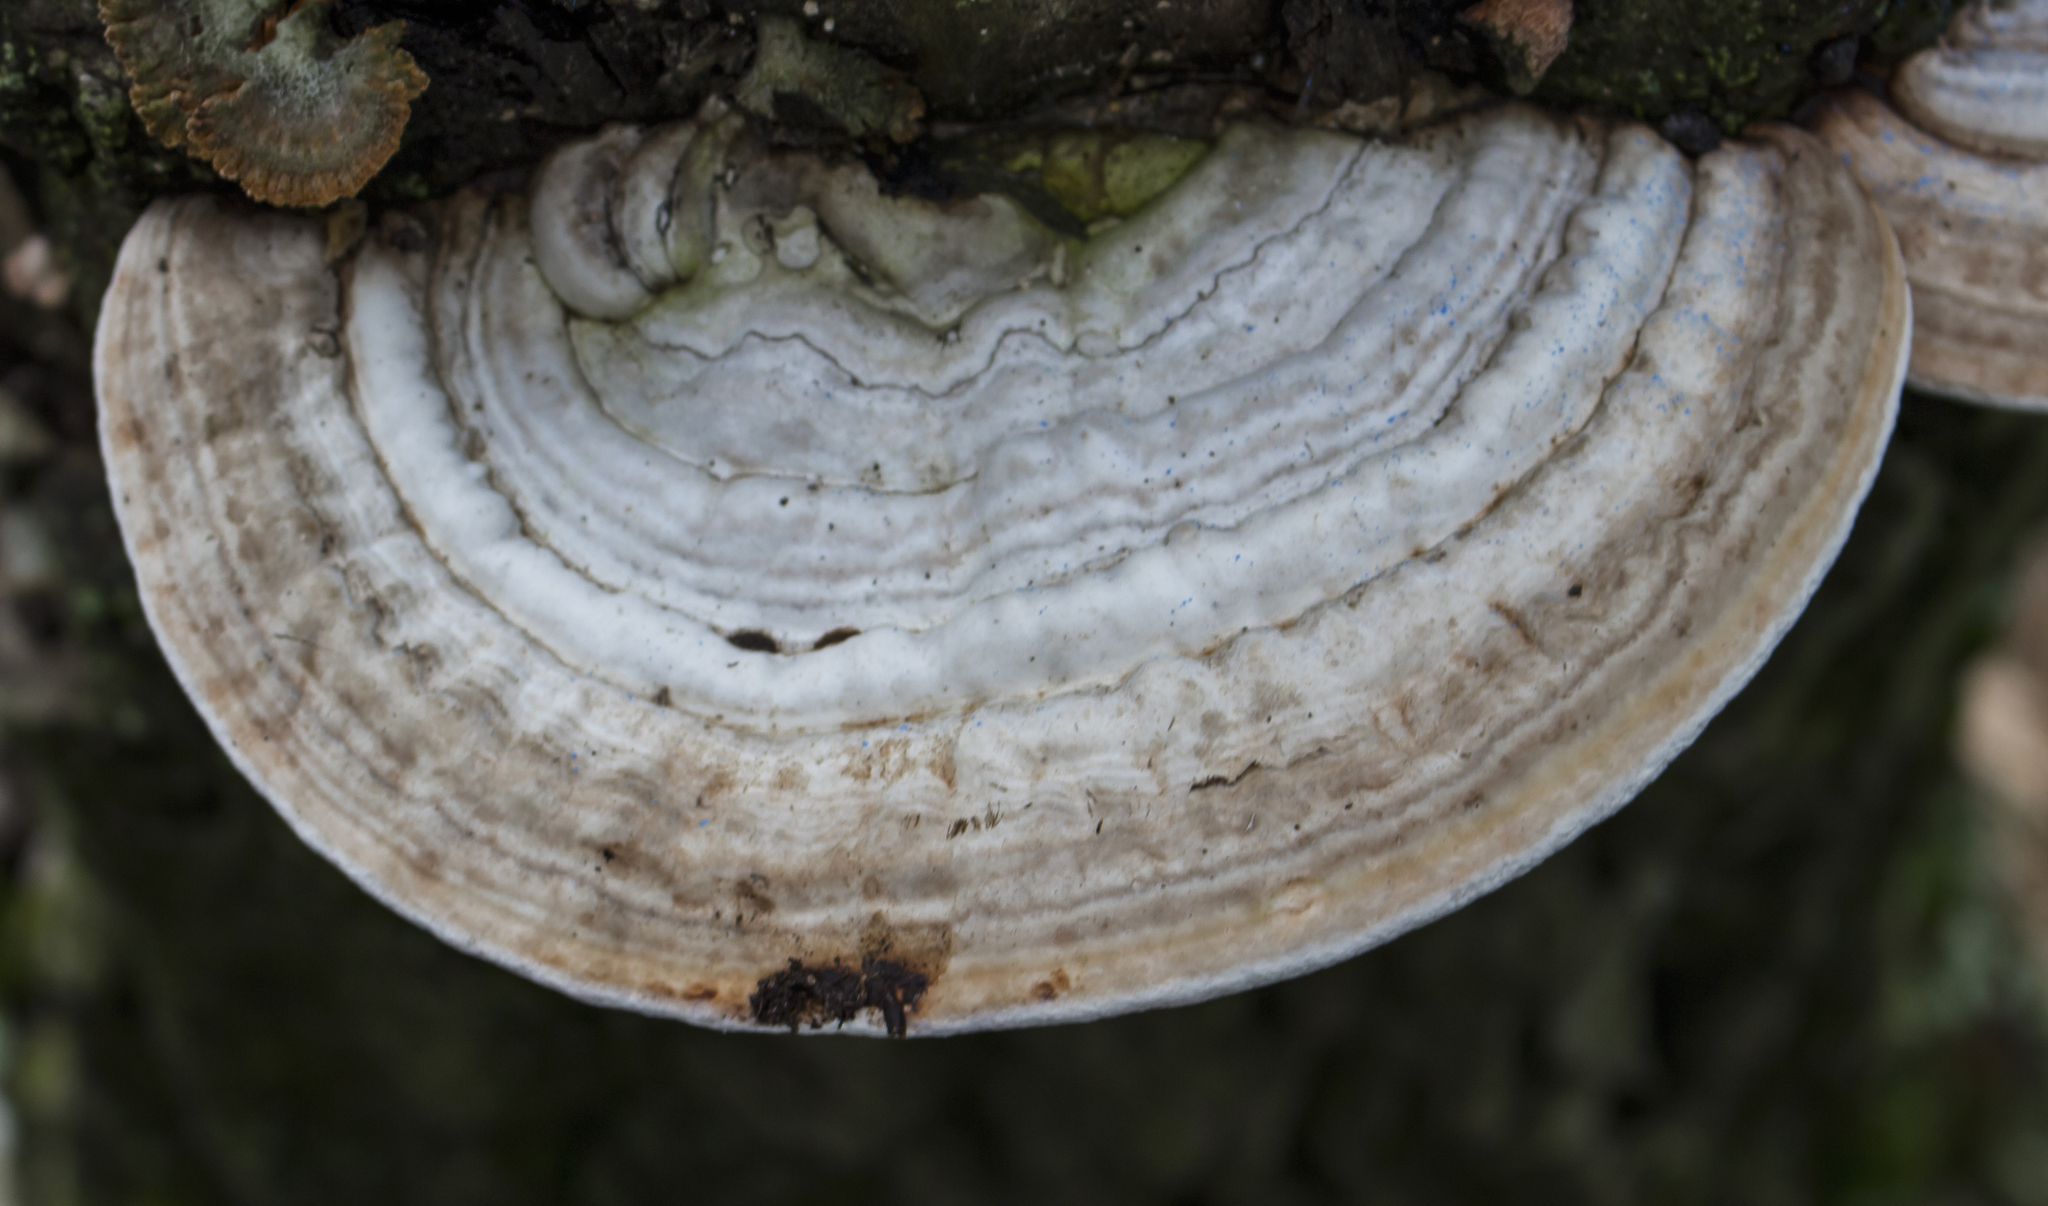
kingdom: Fungi
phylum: Basidiomycota
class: Agaricomycetes
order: Polyporales
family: Polyporaceae
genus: Ganoderma
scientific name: Ganoderma applanatum
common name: Artist's bracket
